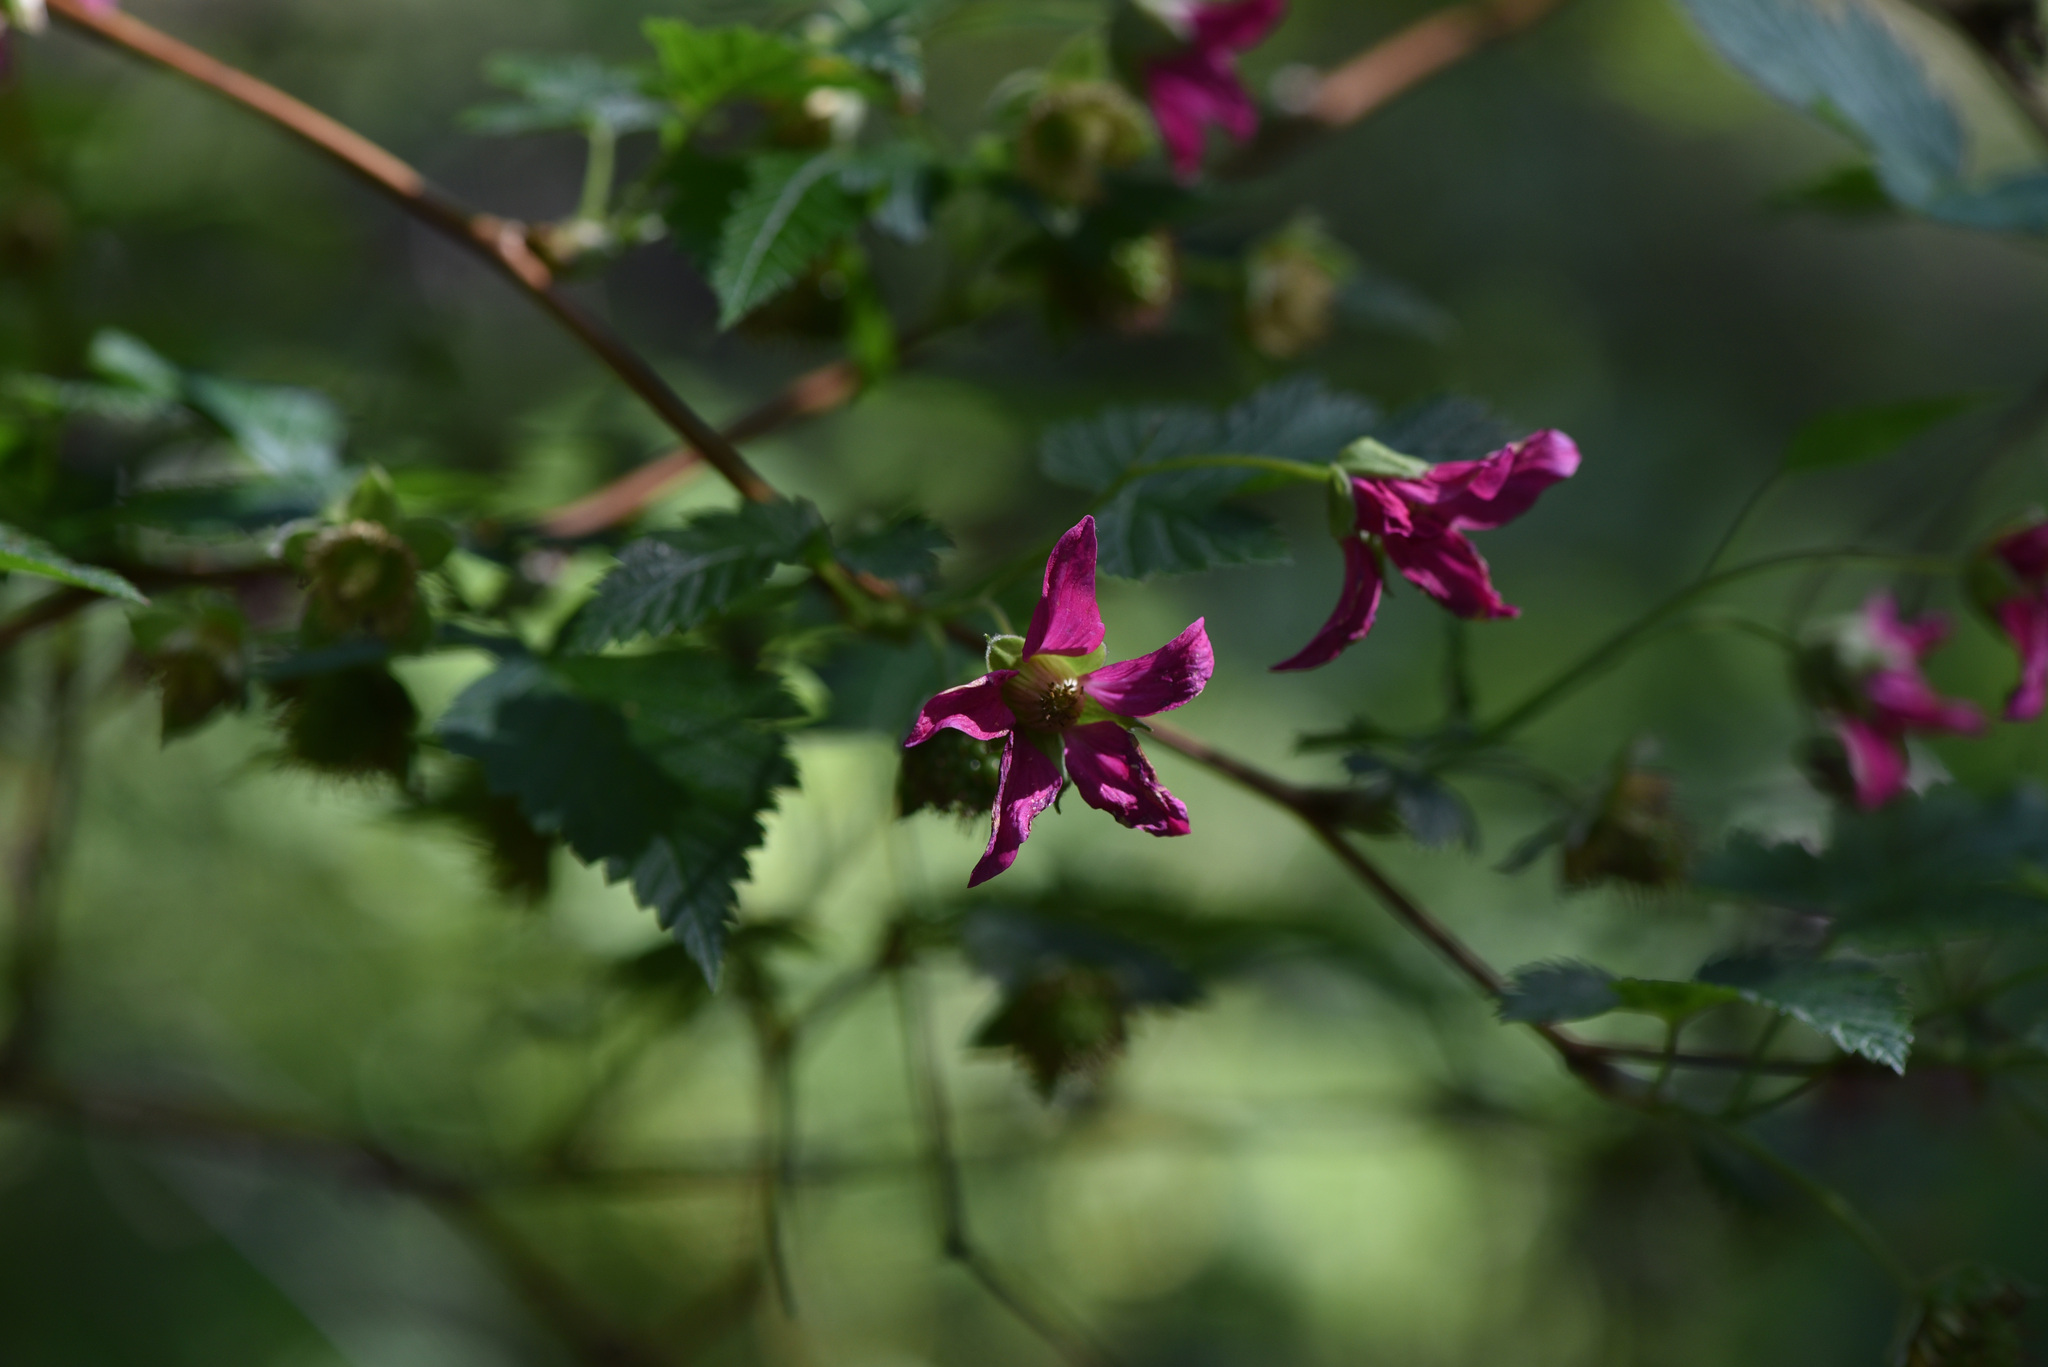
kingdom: Plantae
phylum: Tracheophyta
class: Magnoliopsida
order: Rosales
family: Rosaceae
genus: Rubus
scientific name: Rubus spectabilis
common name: Salmonberry
